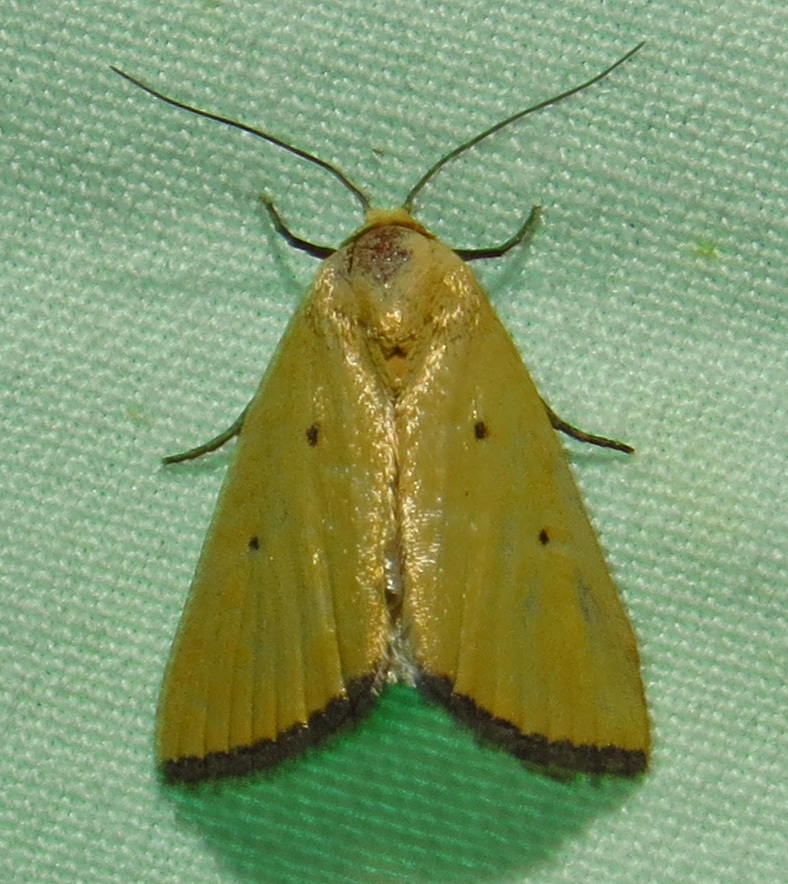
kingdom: Animalia
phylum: Arthropoda
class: Insecta
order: Lepidoptera
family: Noctuidae
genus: Marimatha
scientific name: Marimatha nigrofimbria
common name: Black-bordered lemon moth
